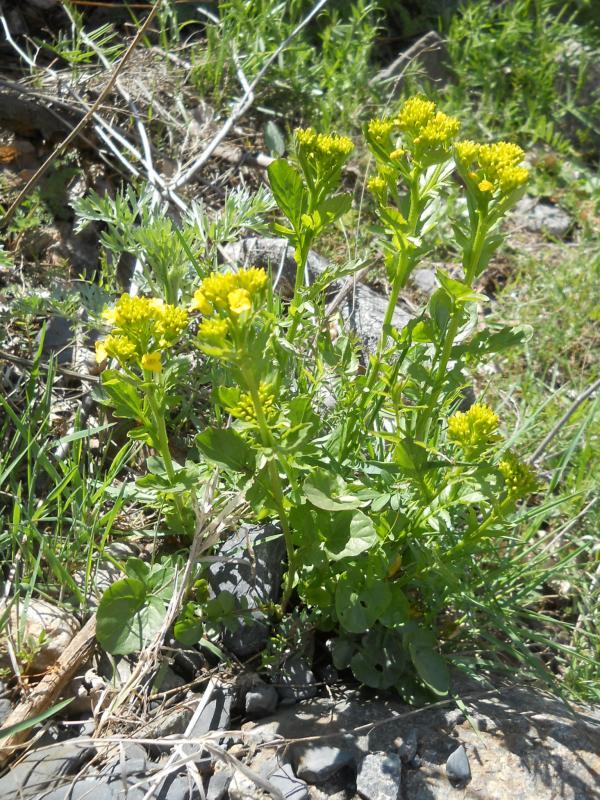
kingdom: Plantae
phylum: Tracheophyta
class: Magnoliopsida
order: Brassicales
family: Brassicaceae
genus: Barbarea
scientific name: Barbarea vulgaris
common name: Cressy-greens
